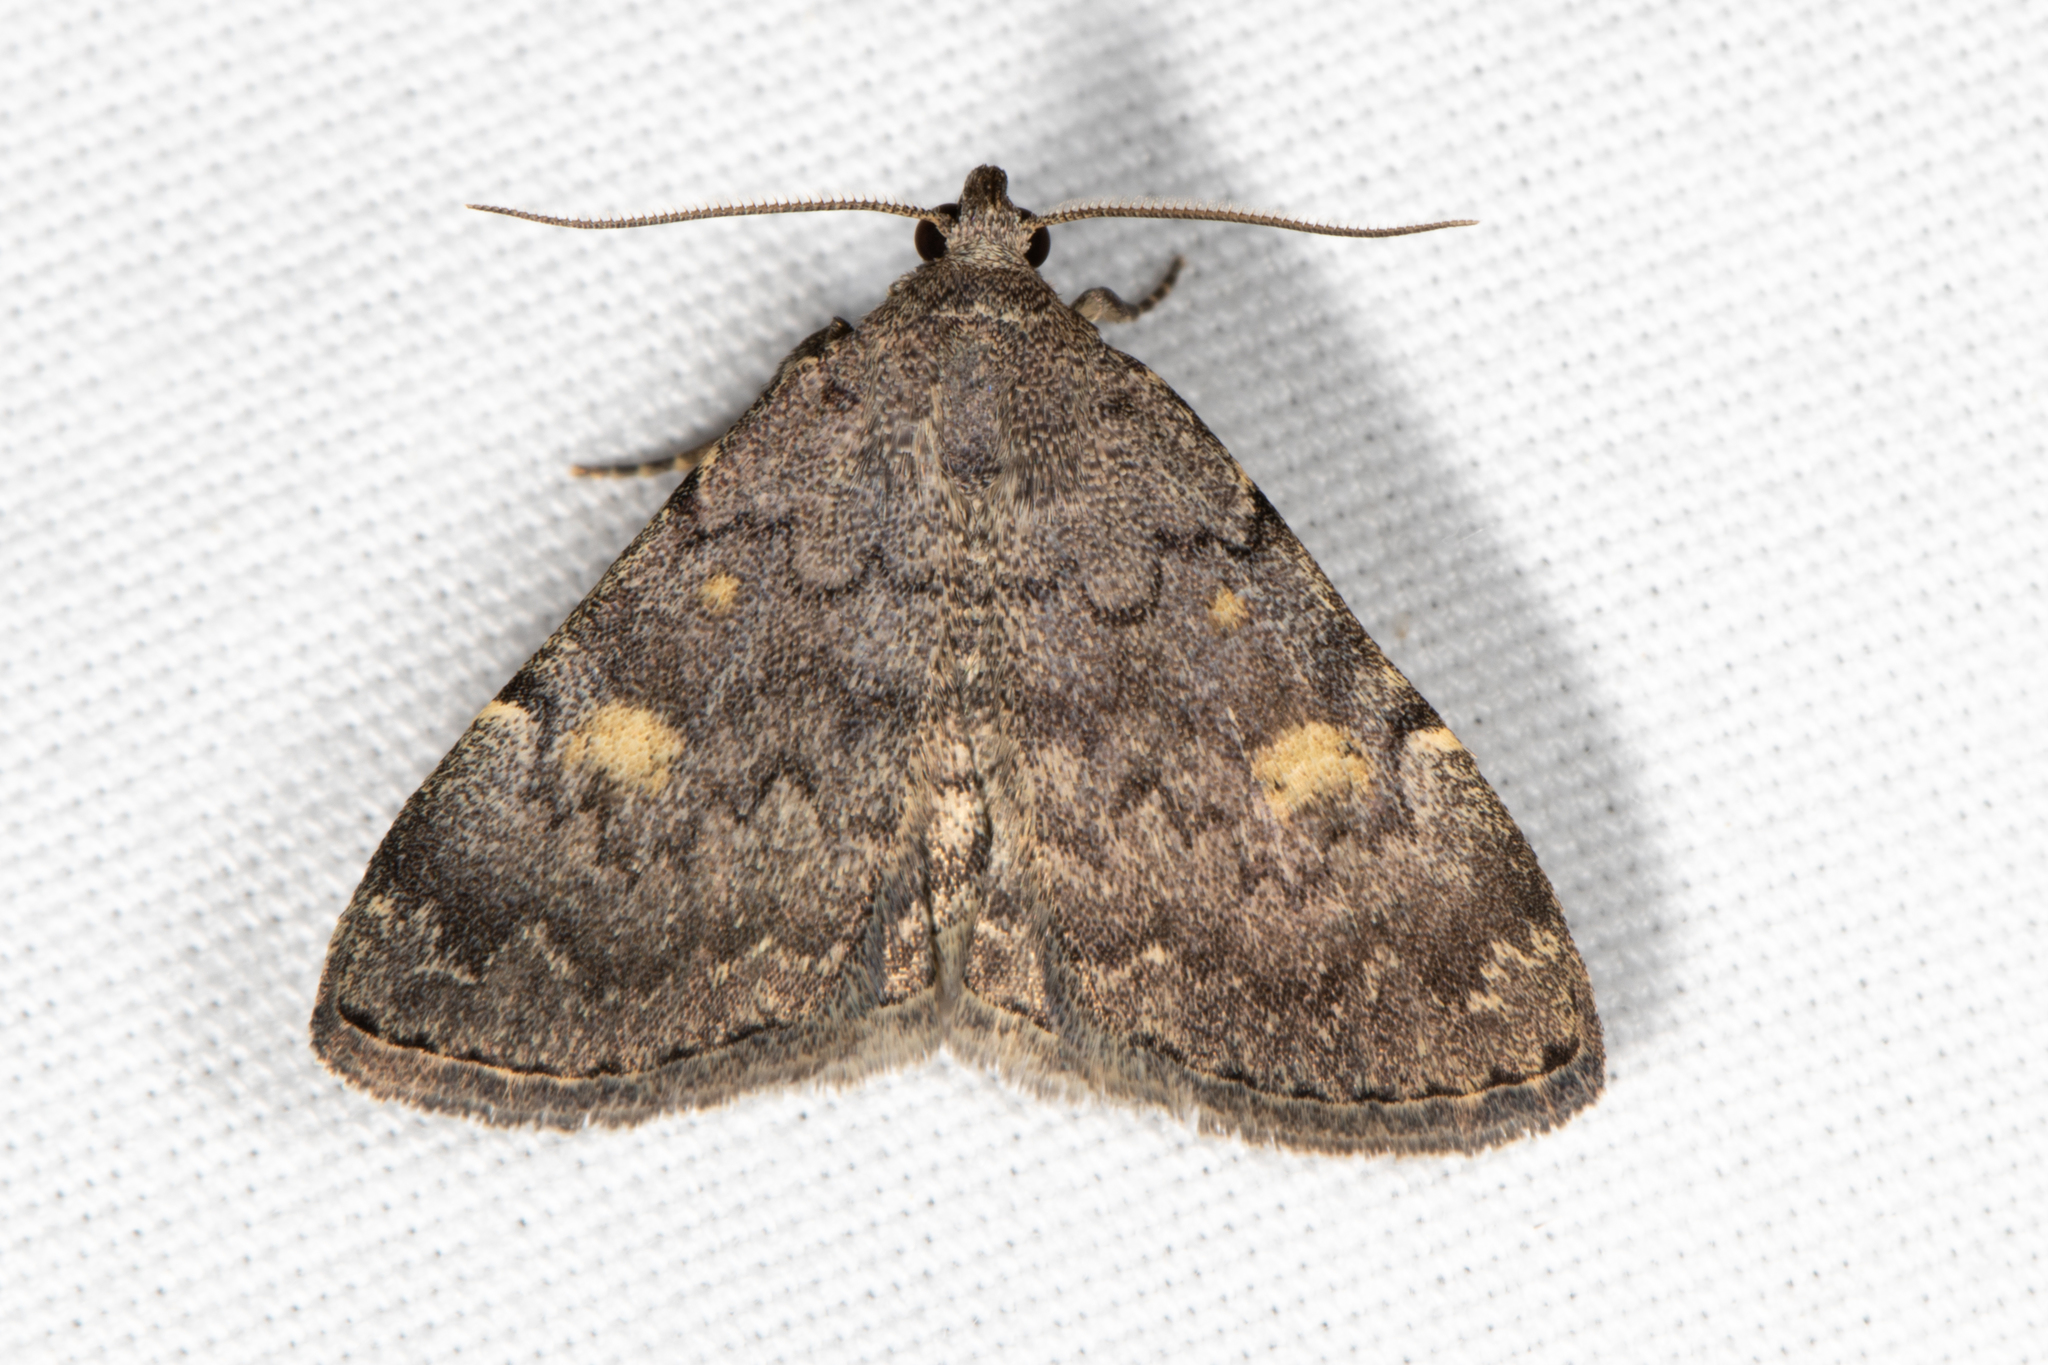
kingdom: Animalia
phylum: Arthropoda
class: Insecta
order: Lepidoptera
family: Erebidae
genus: Idia
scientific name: Idia aemula
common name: Common idia moth
